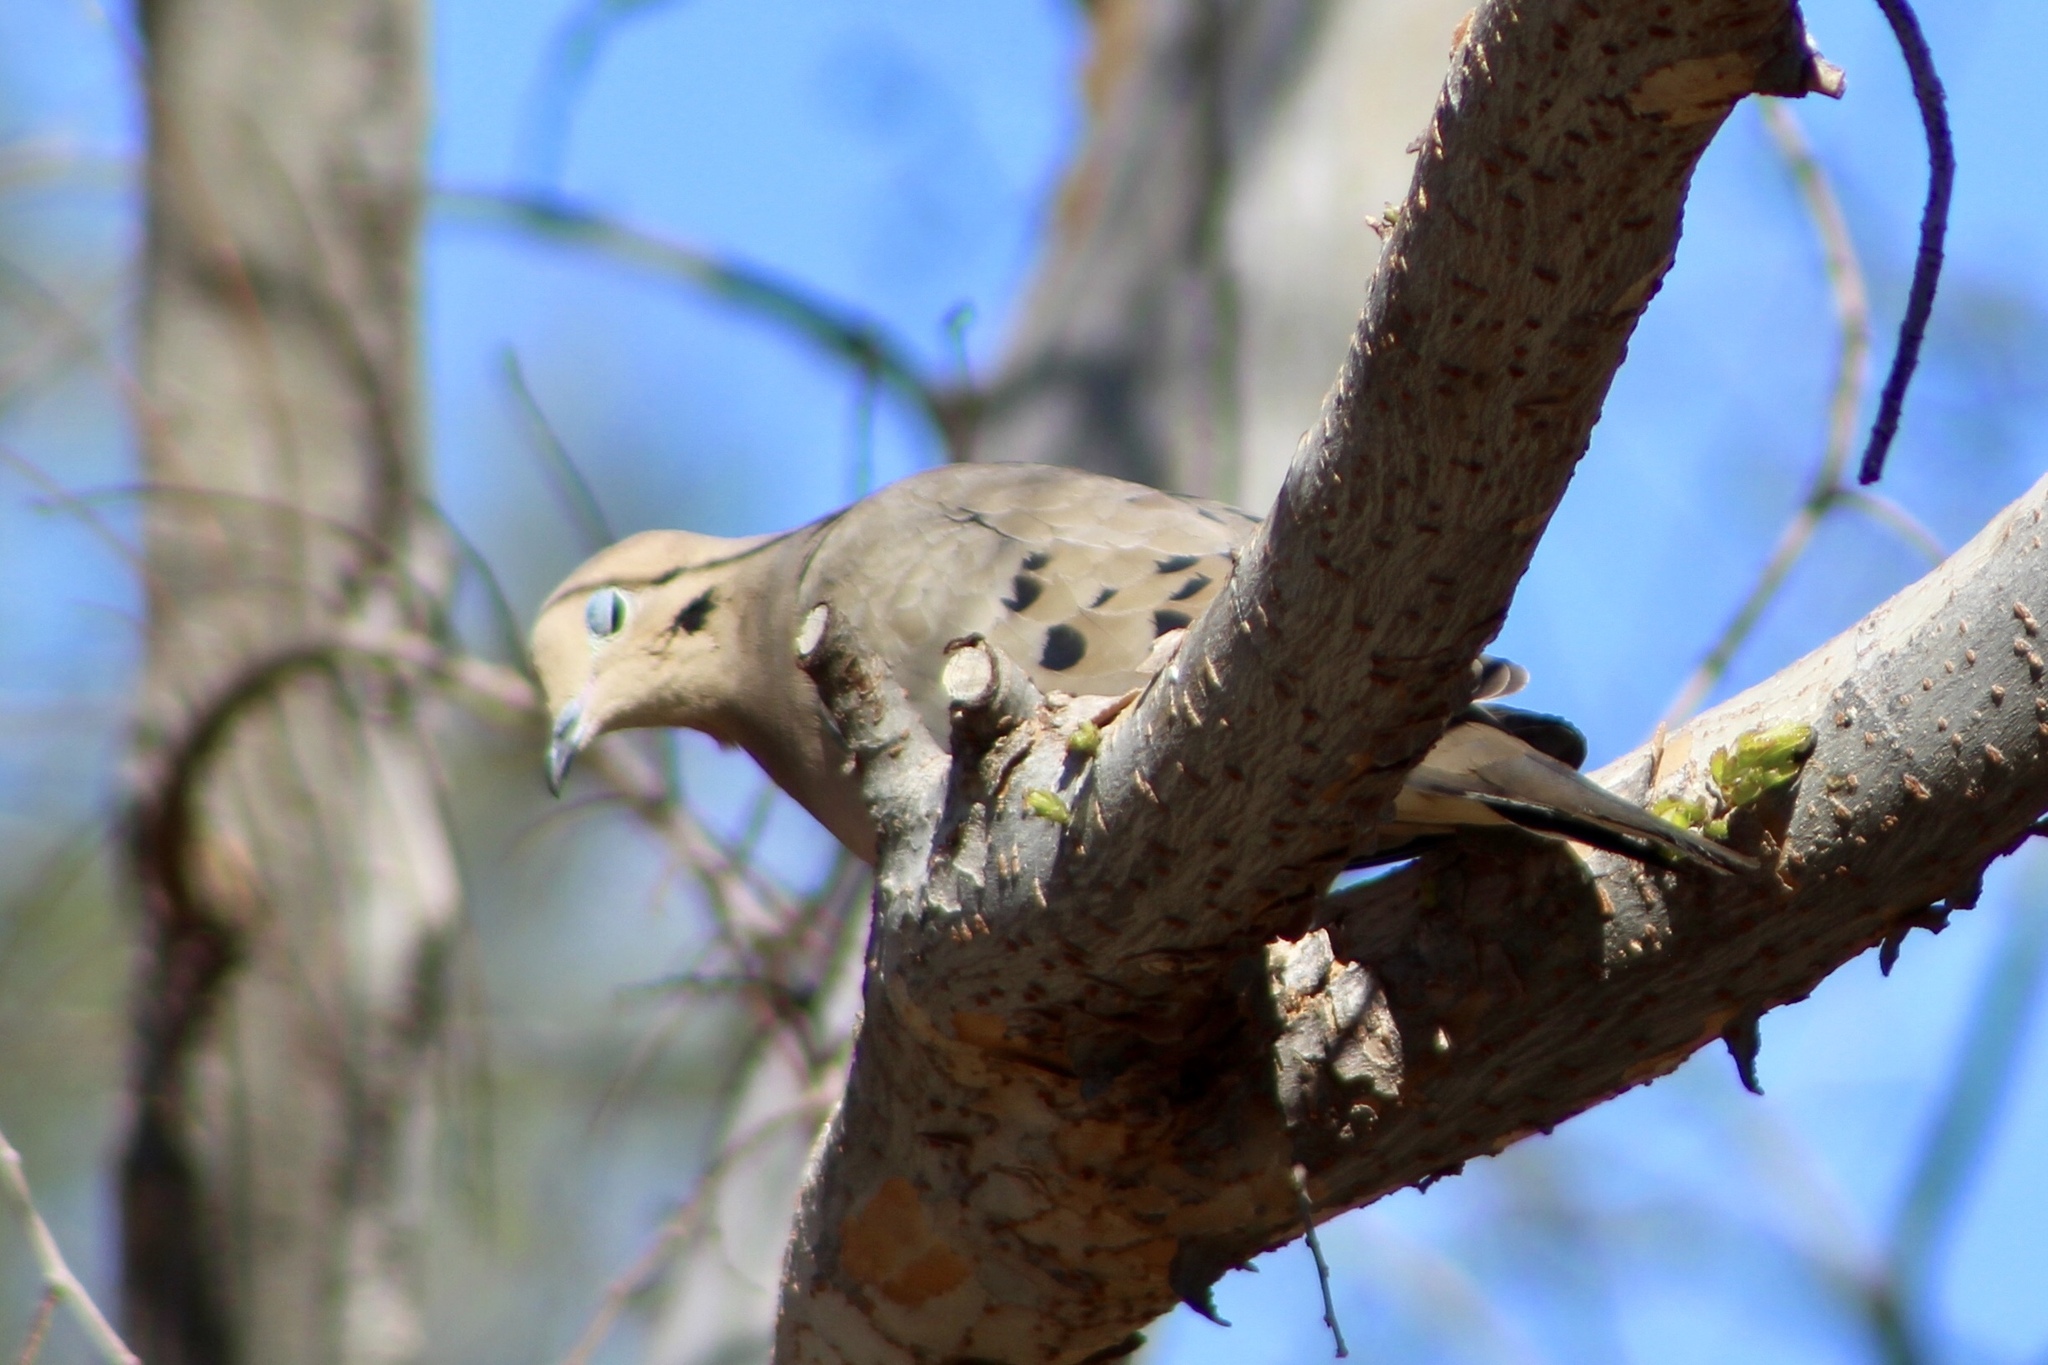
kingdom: Animalia
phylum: Chordata
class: Aves
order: Columbiformes
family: Columbidae
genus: Zenaida
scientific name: Zenaida macroura
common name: Mourning dove
